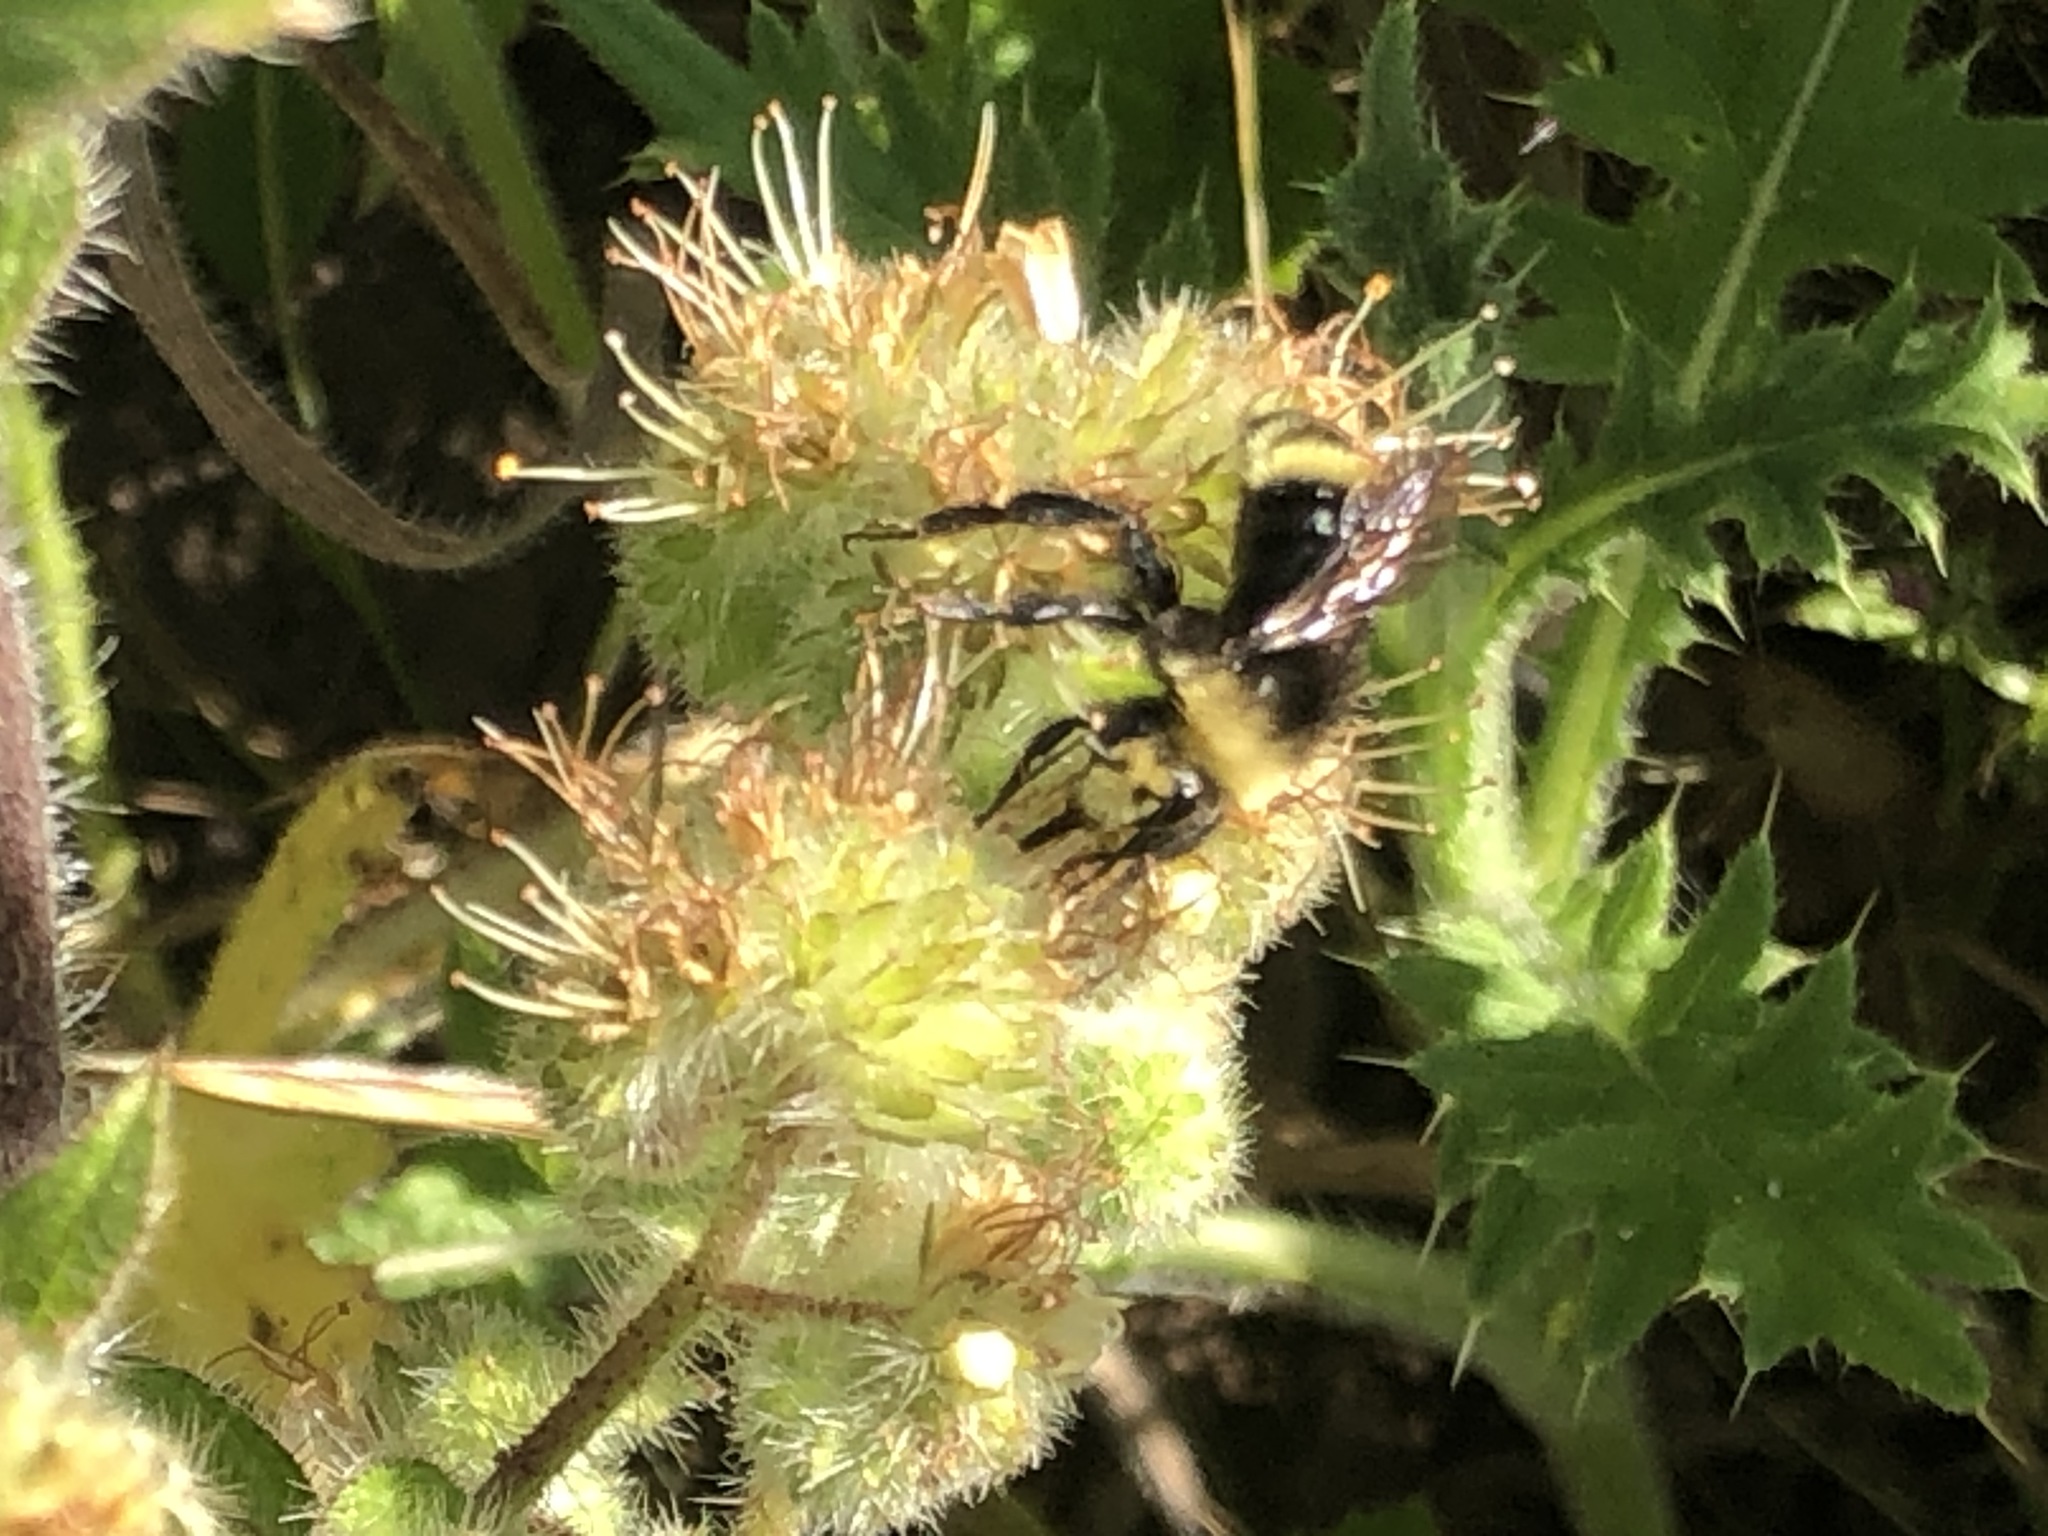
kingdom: Animalia
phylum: Arthropoda
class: Insecta
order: Hymenoptera
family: Apidae
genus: Bombus
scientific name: Bombus vosnesenskii
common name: Vosnesensky bumble bee
